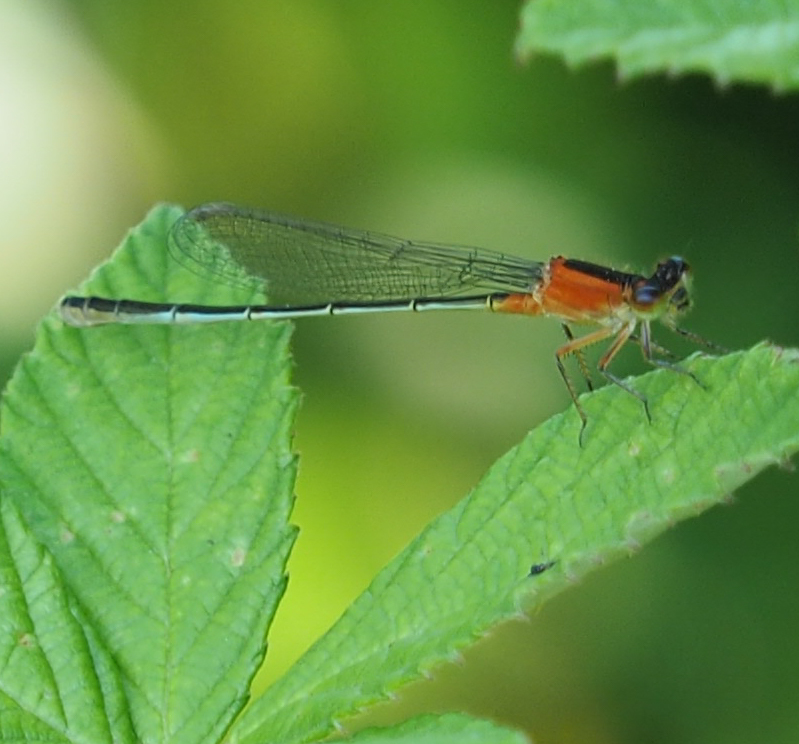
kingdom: Animalia
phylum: Arthropoda
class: Insecta
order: Odonata
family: Coenagrionidae
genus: Ischnura
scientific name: Ischnura ramburii
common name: Rambur's forktail
